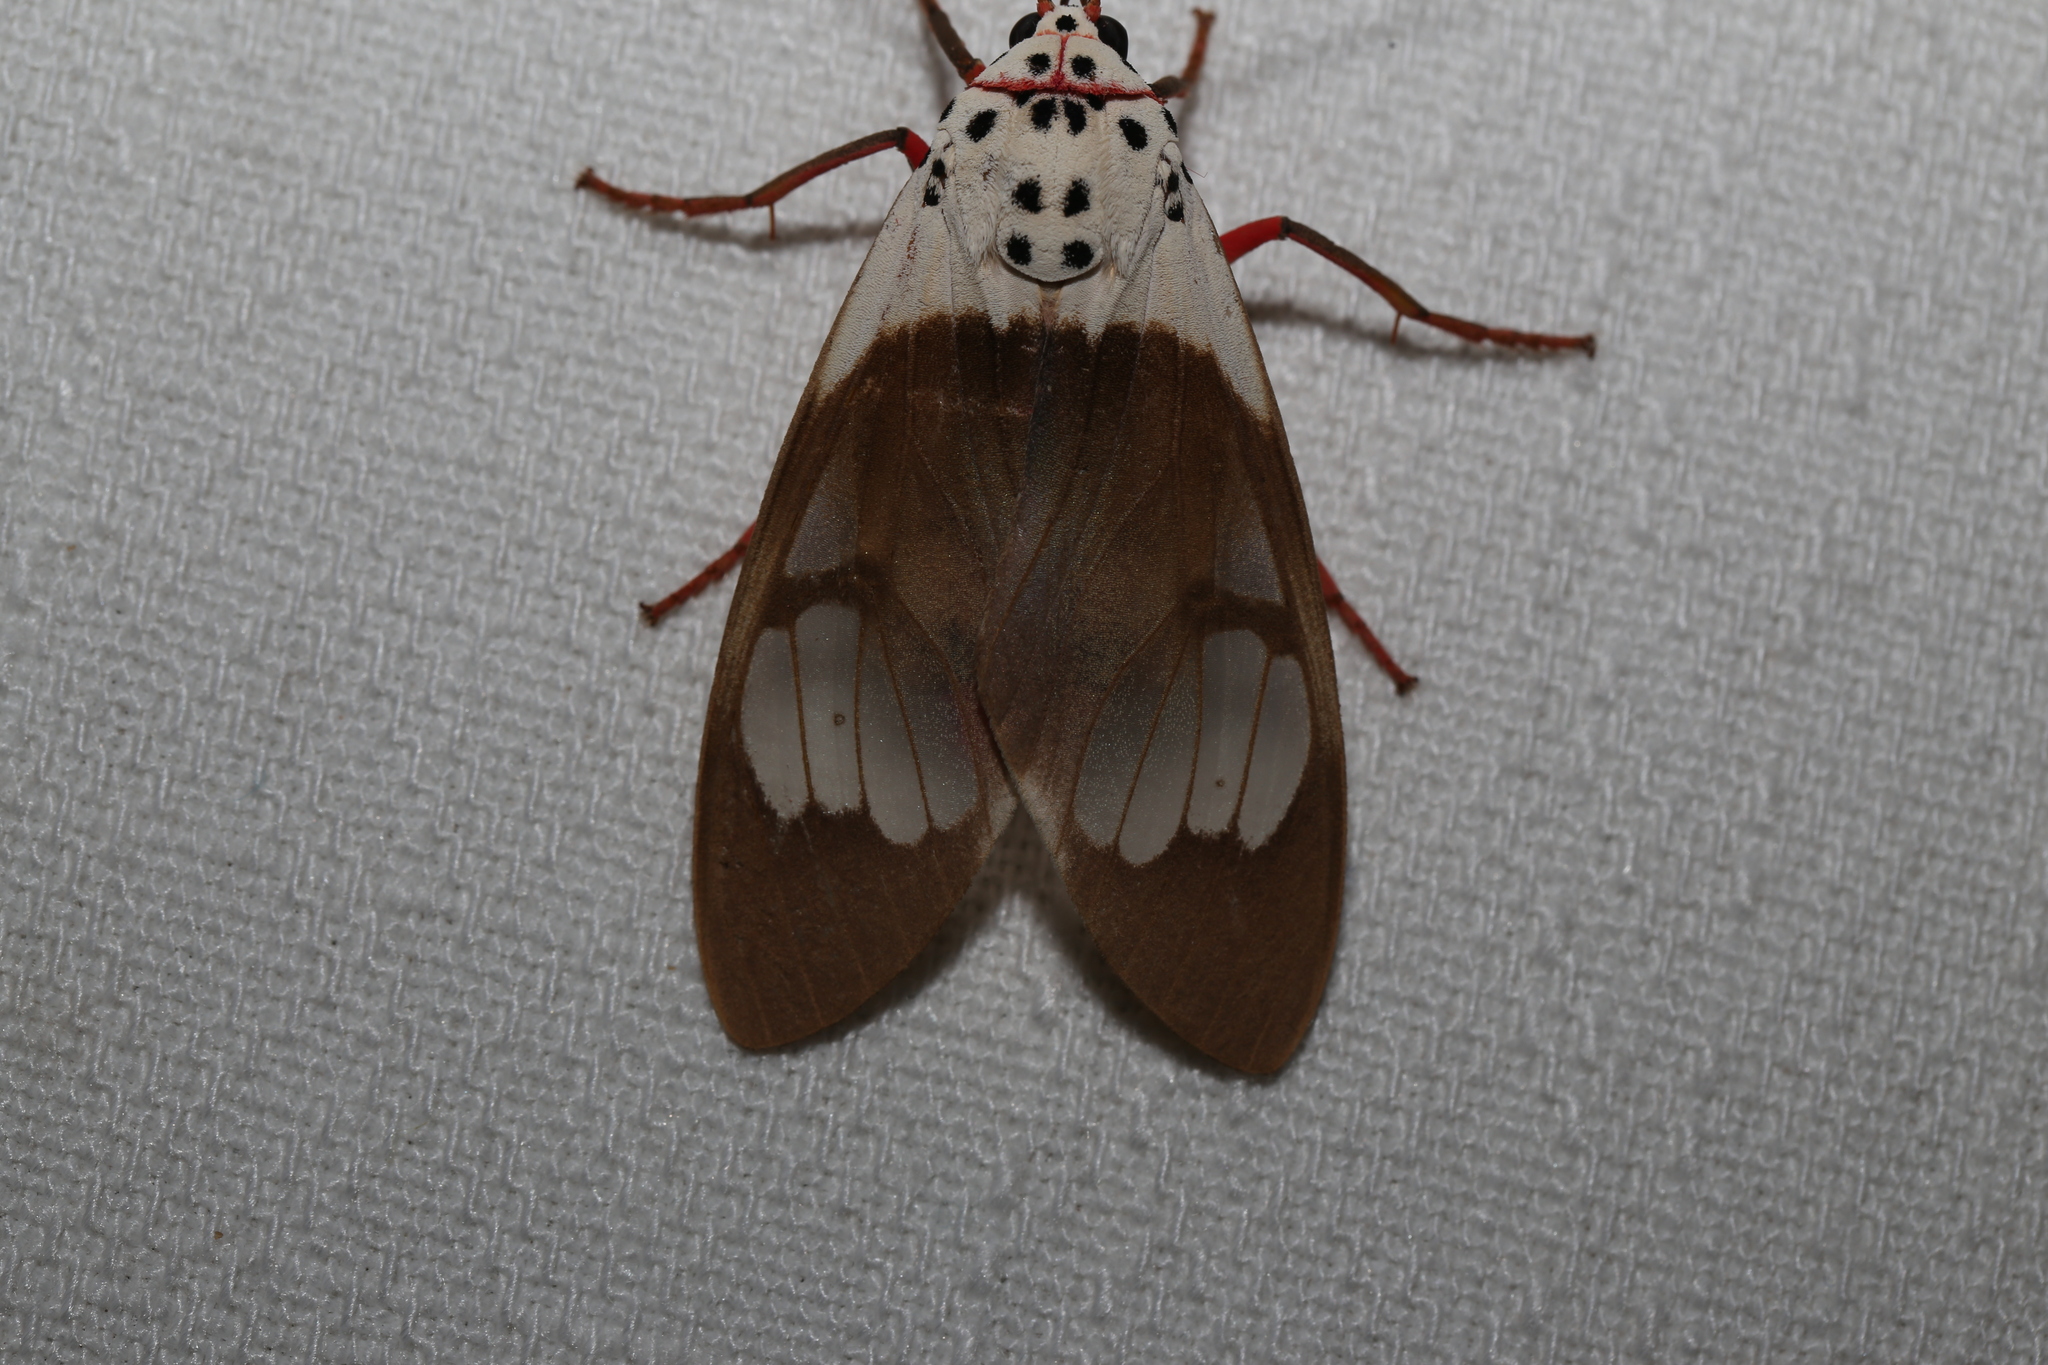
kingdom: Animalia
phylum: Arthropoda
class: Insecta
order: Lepidoptera
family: Erebidae
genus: Amerila
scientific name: Amerila crokeri
